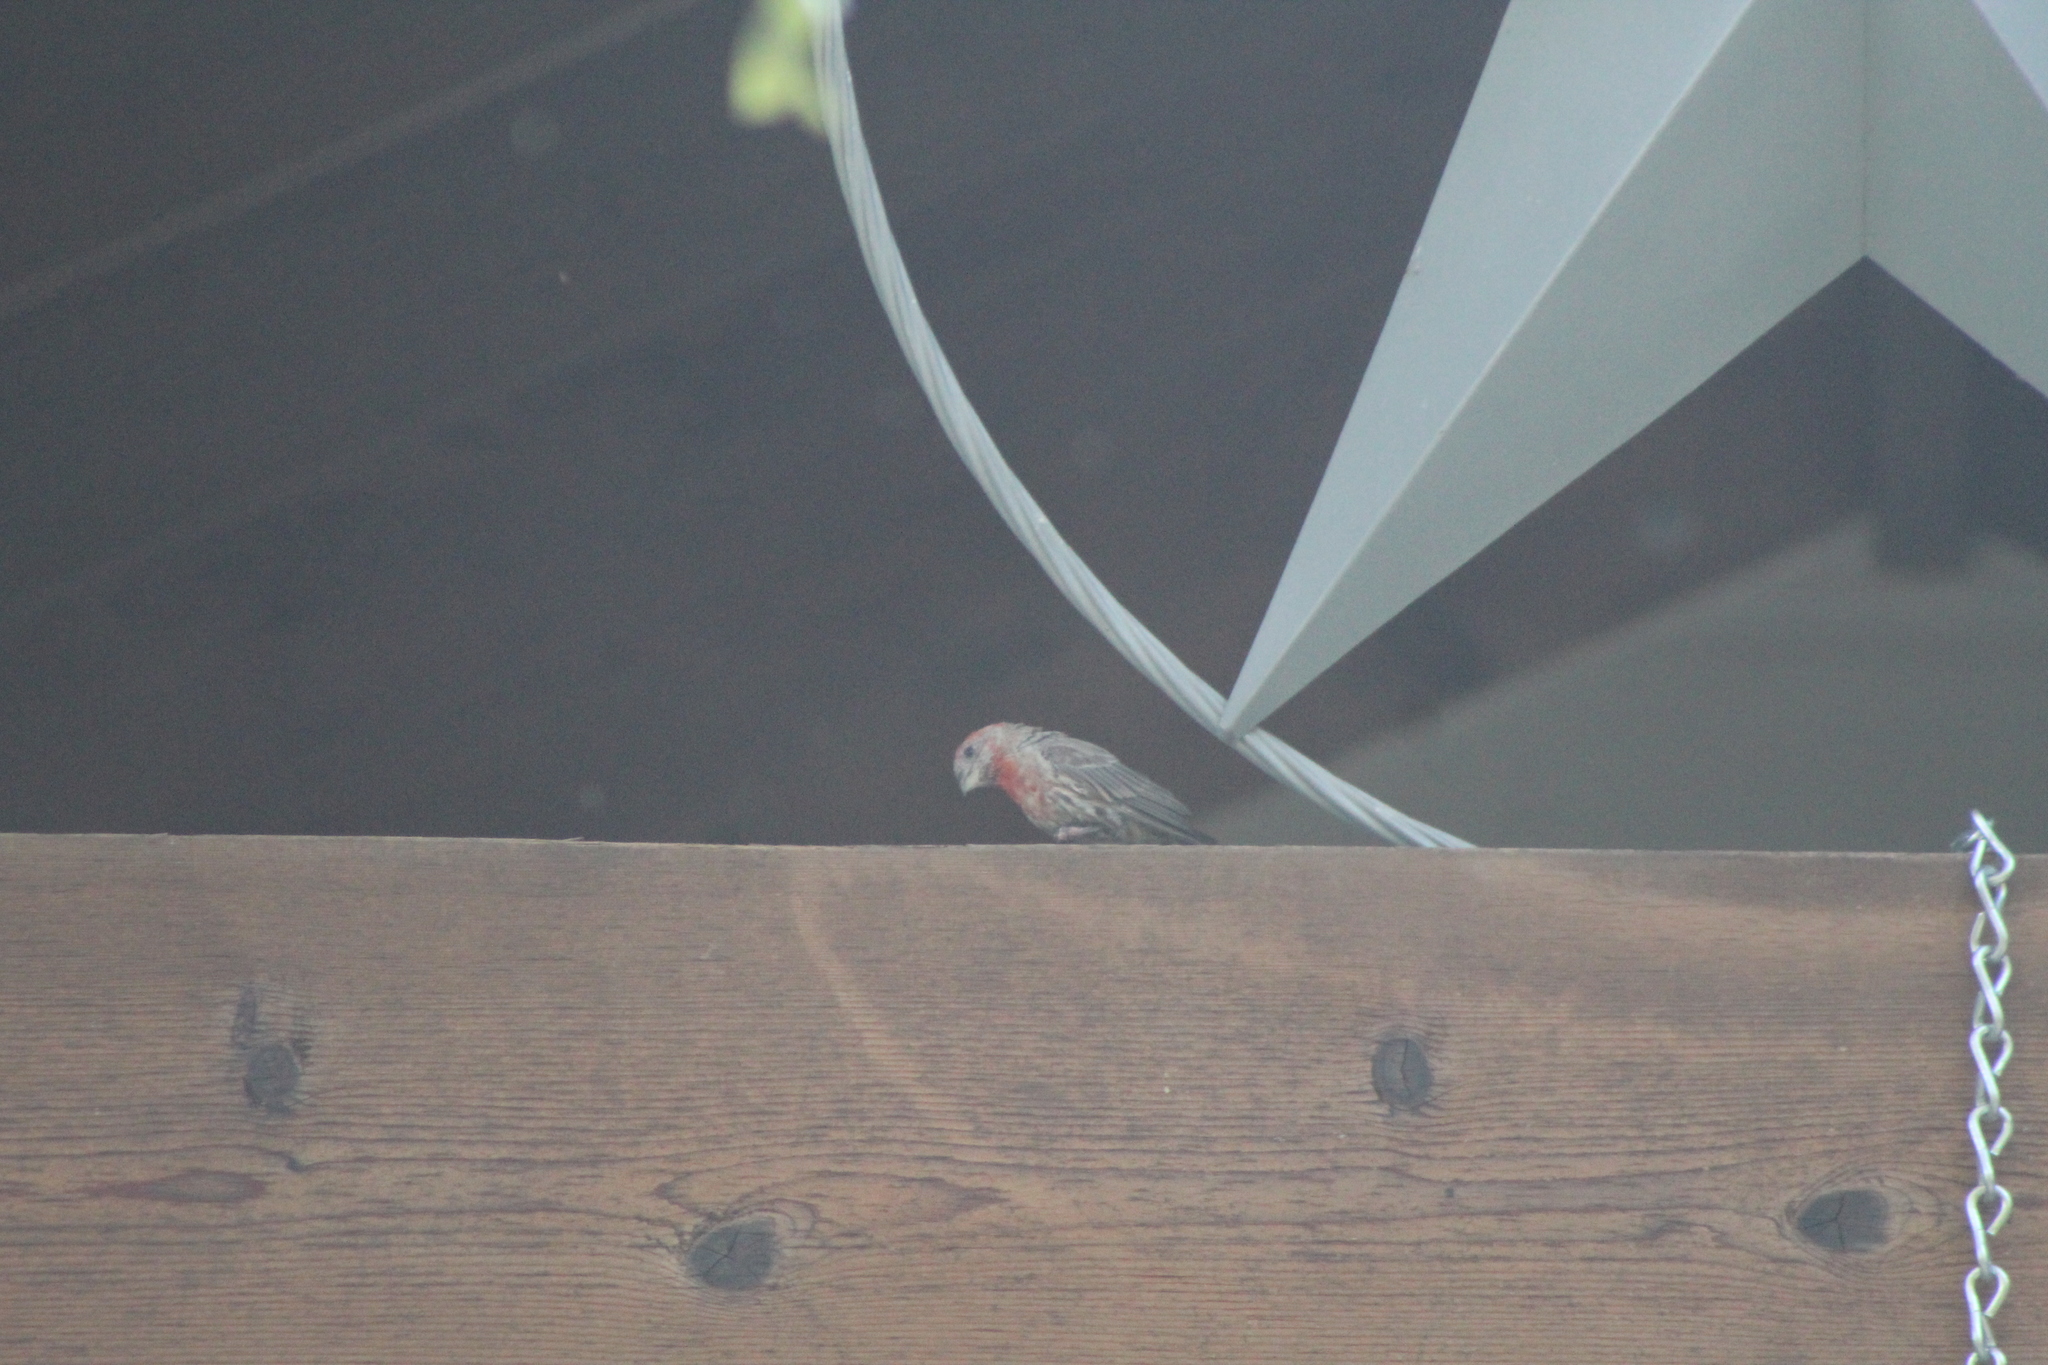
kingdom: Animalia
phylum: Chordata
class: Aves
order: Passeriformes
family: Fringillidae
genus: Haemorhous
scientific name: Haemorhous mexicanus
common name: House finch
